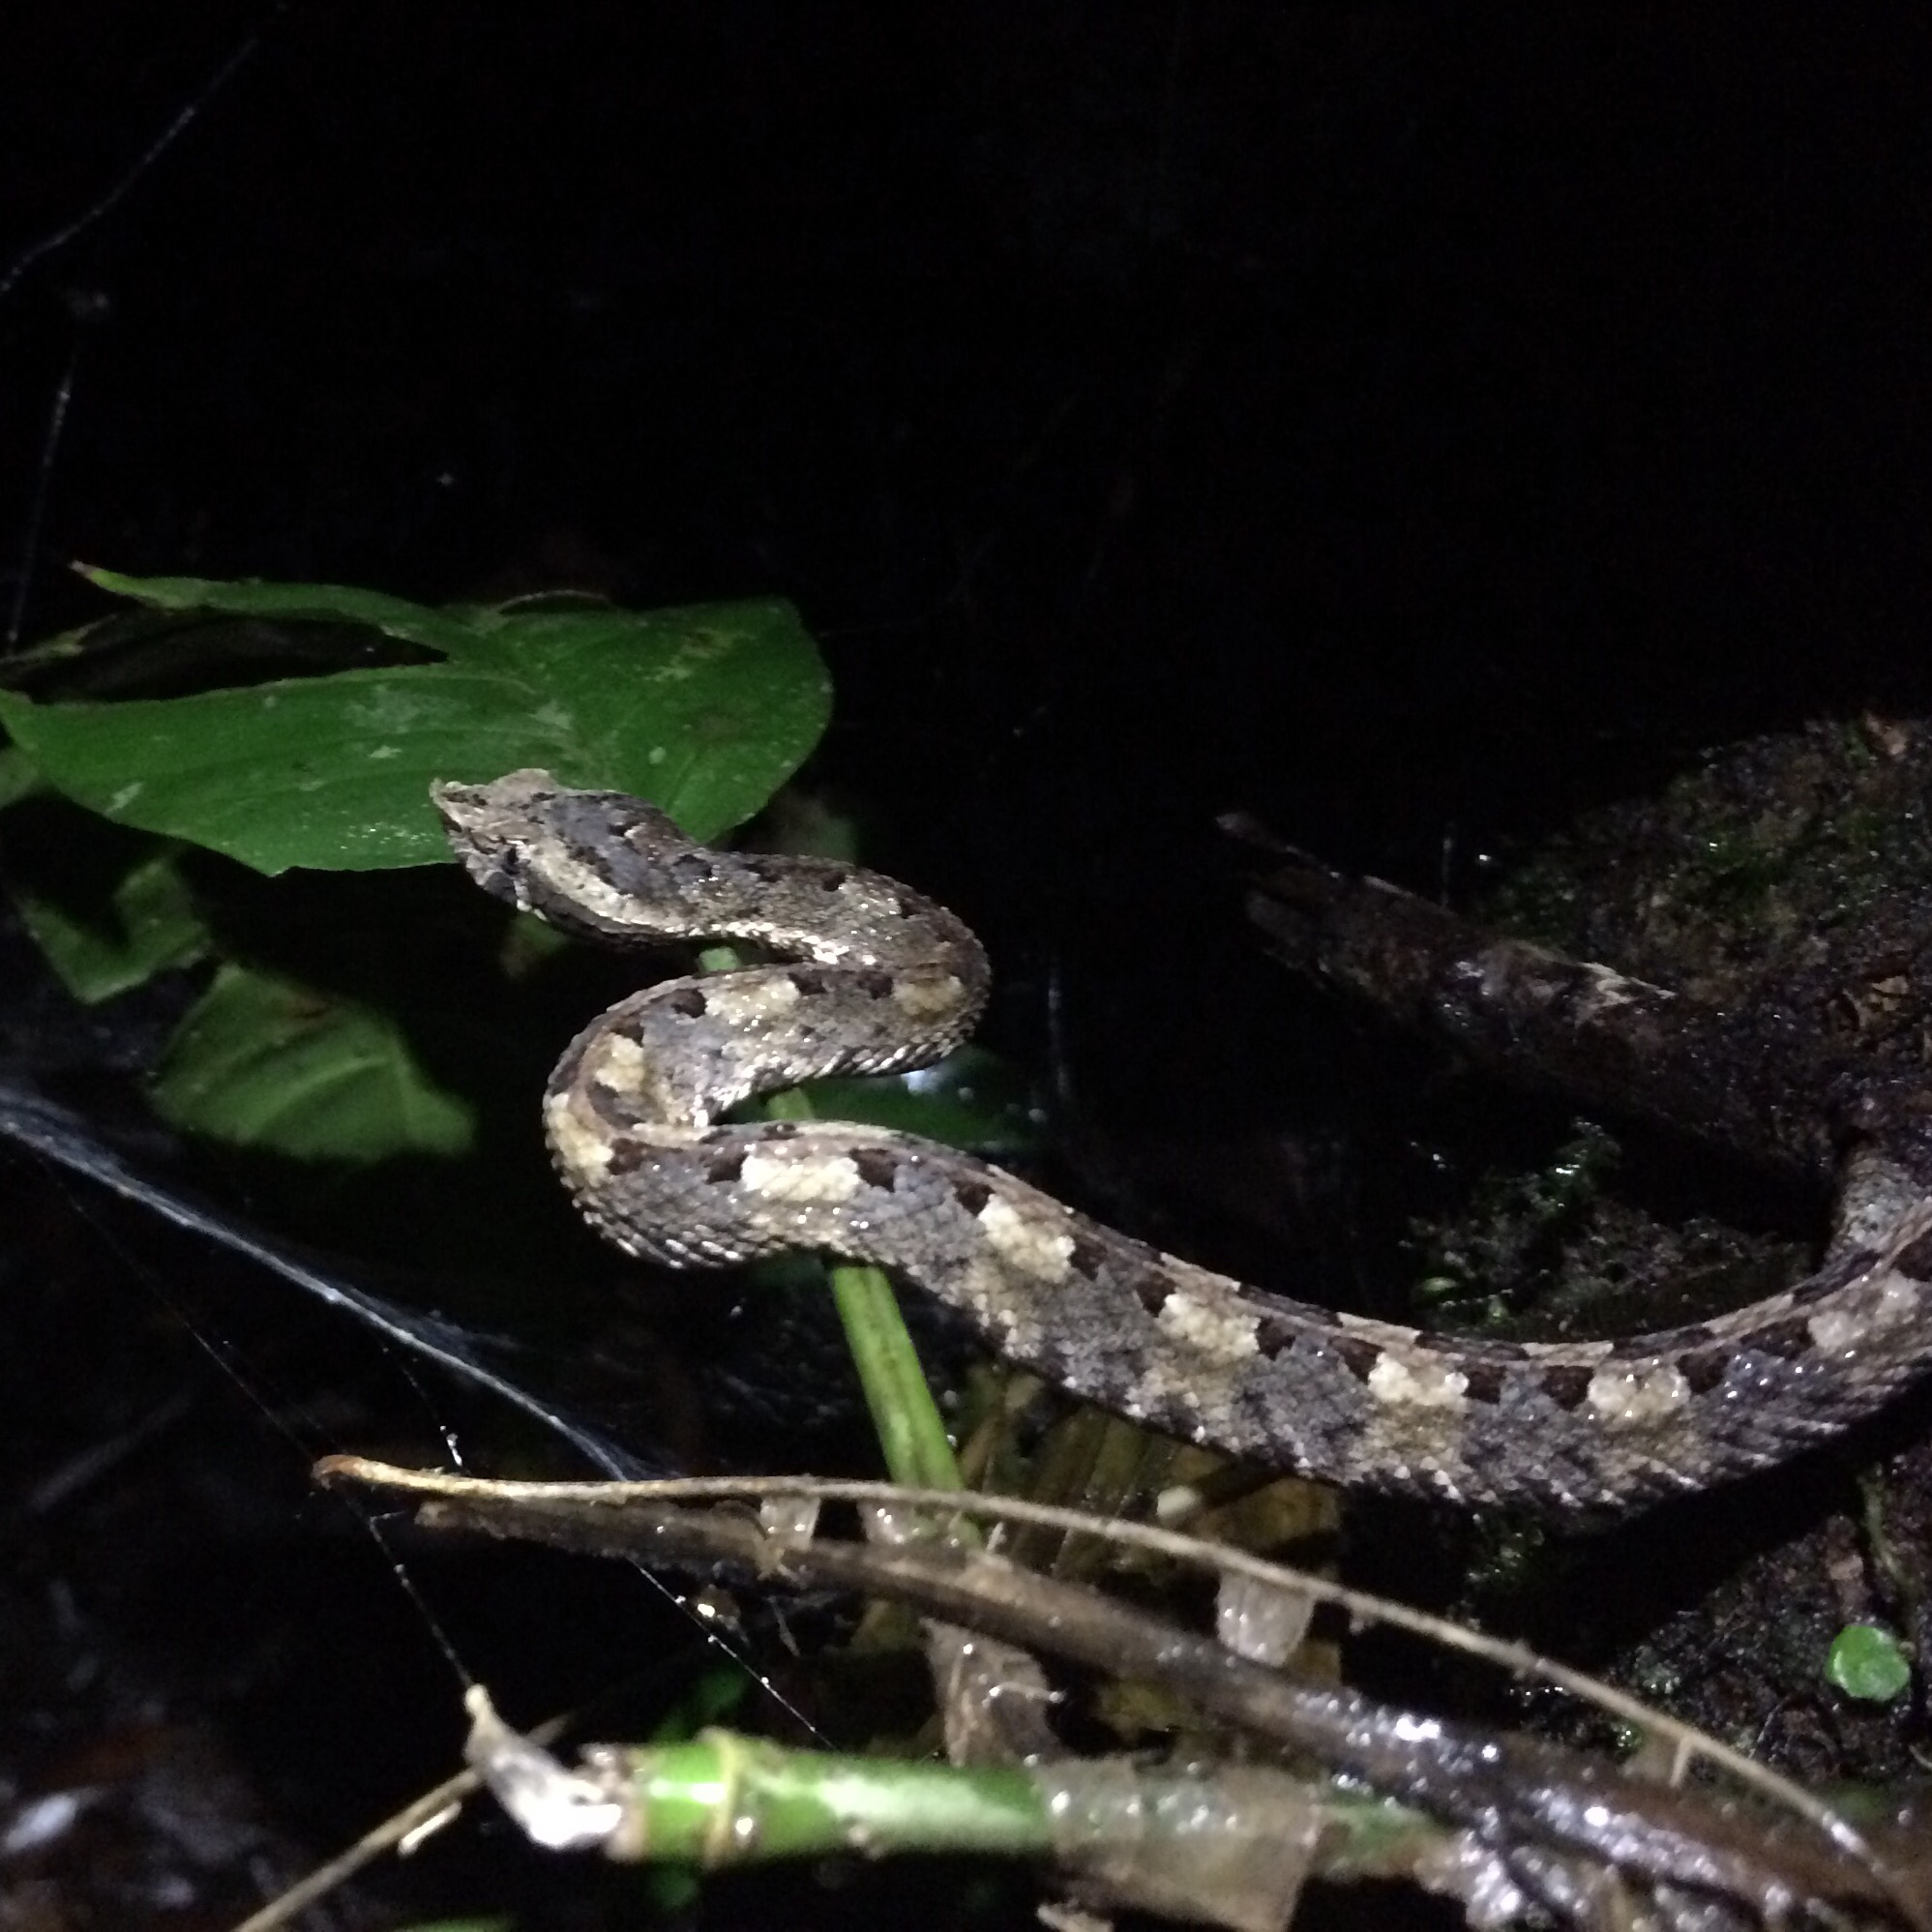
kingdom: Animalia
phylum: Chordata
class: Squamata
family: Viperidae
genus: Porthidium
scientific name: Porthidium nasutum
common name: Hognosed pit viper
